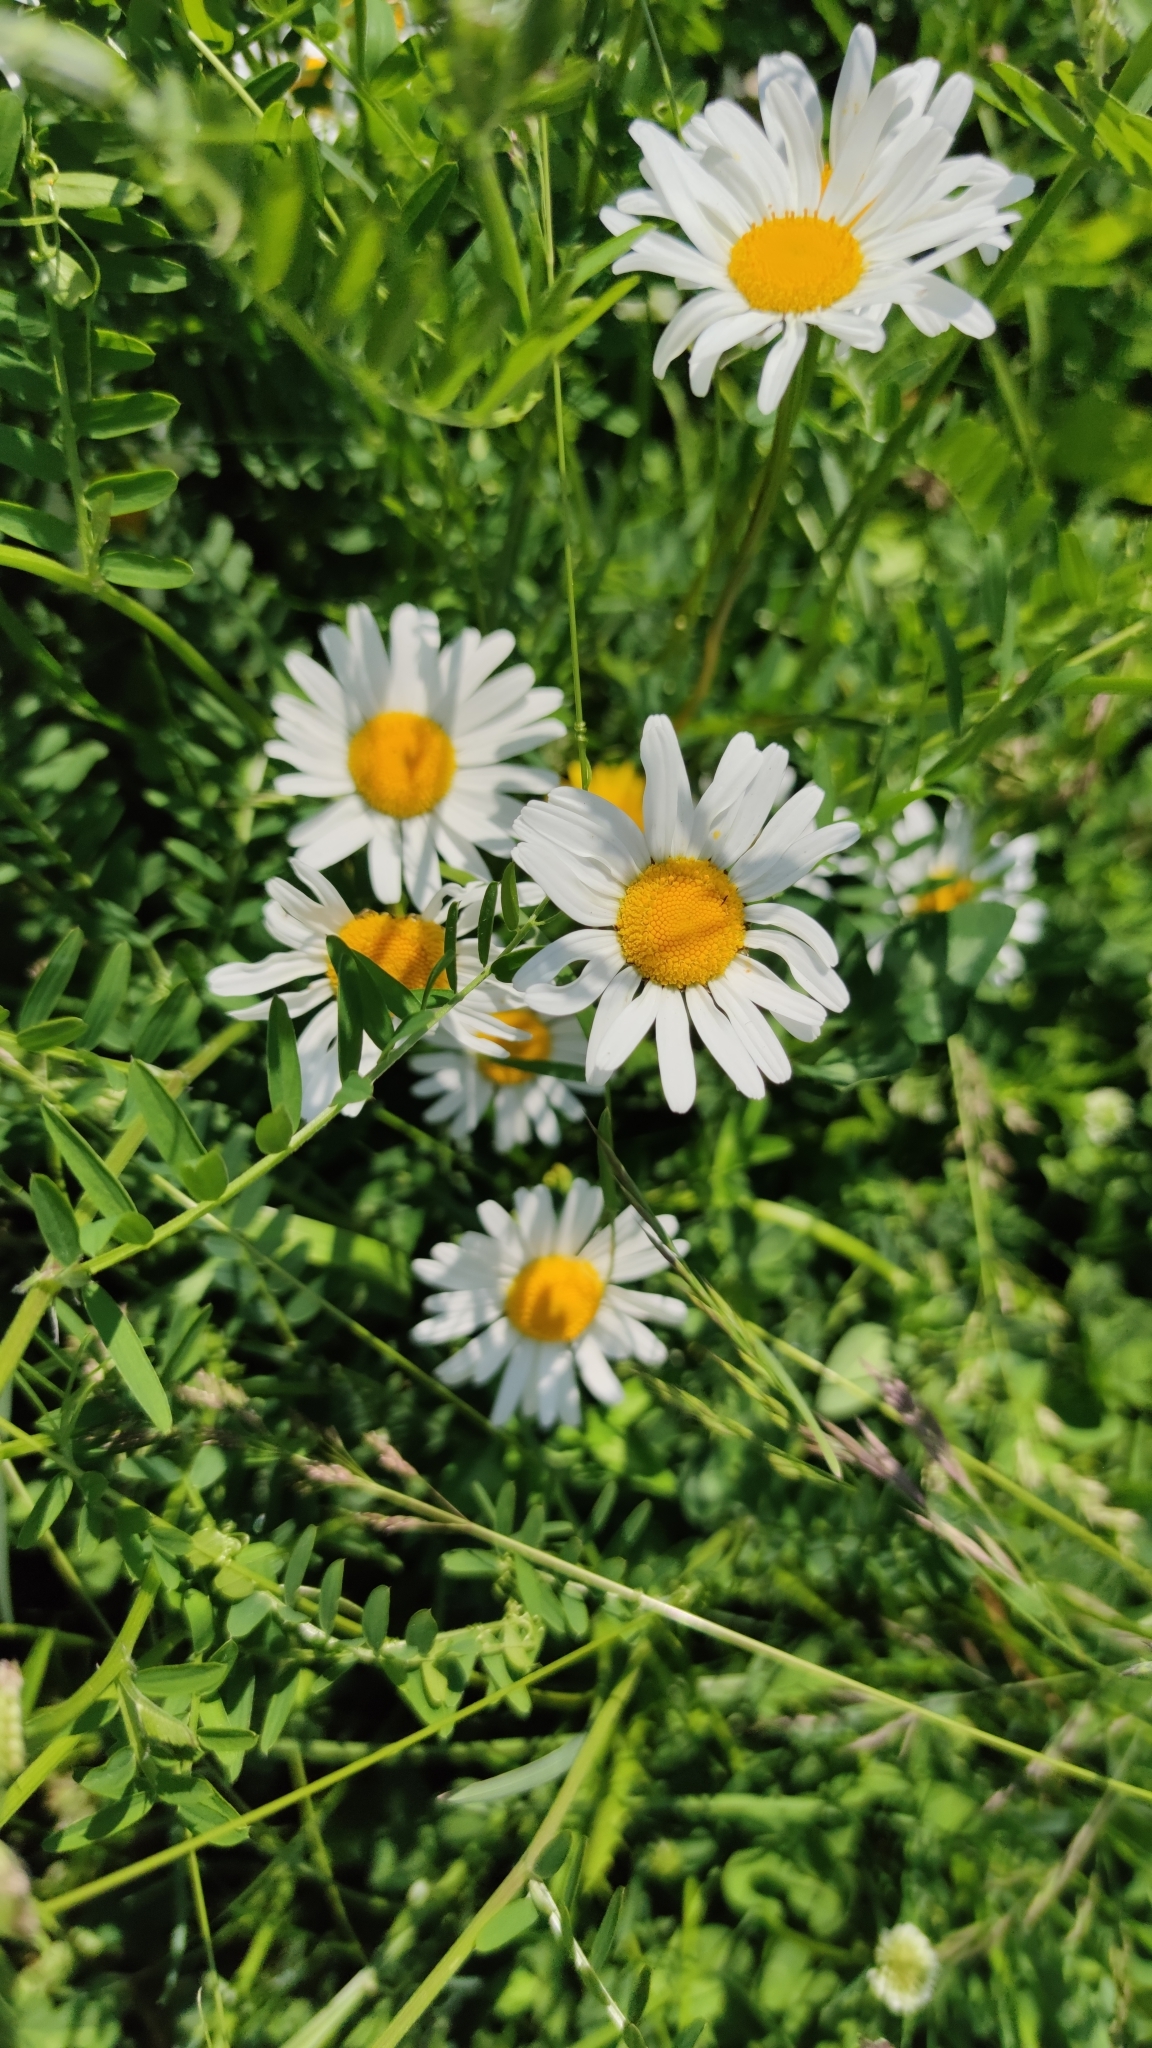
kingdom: Plantae
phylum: Tracheophyta
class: Magnoliopsida
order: Asterales
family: Asteraceae
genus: Leucanthemum
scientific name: Leucanthemum vulgare
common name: Oxeye daisy
